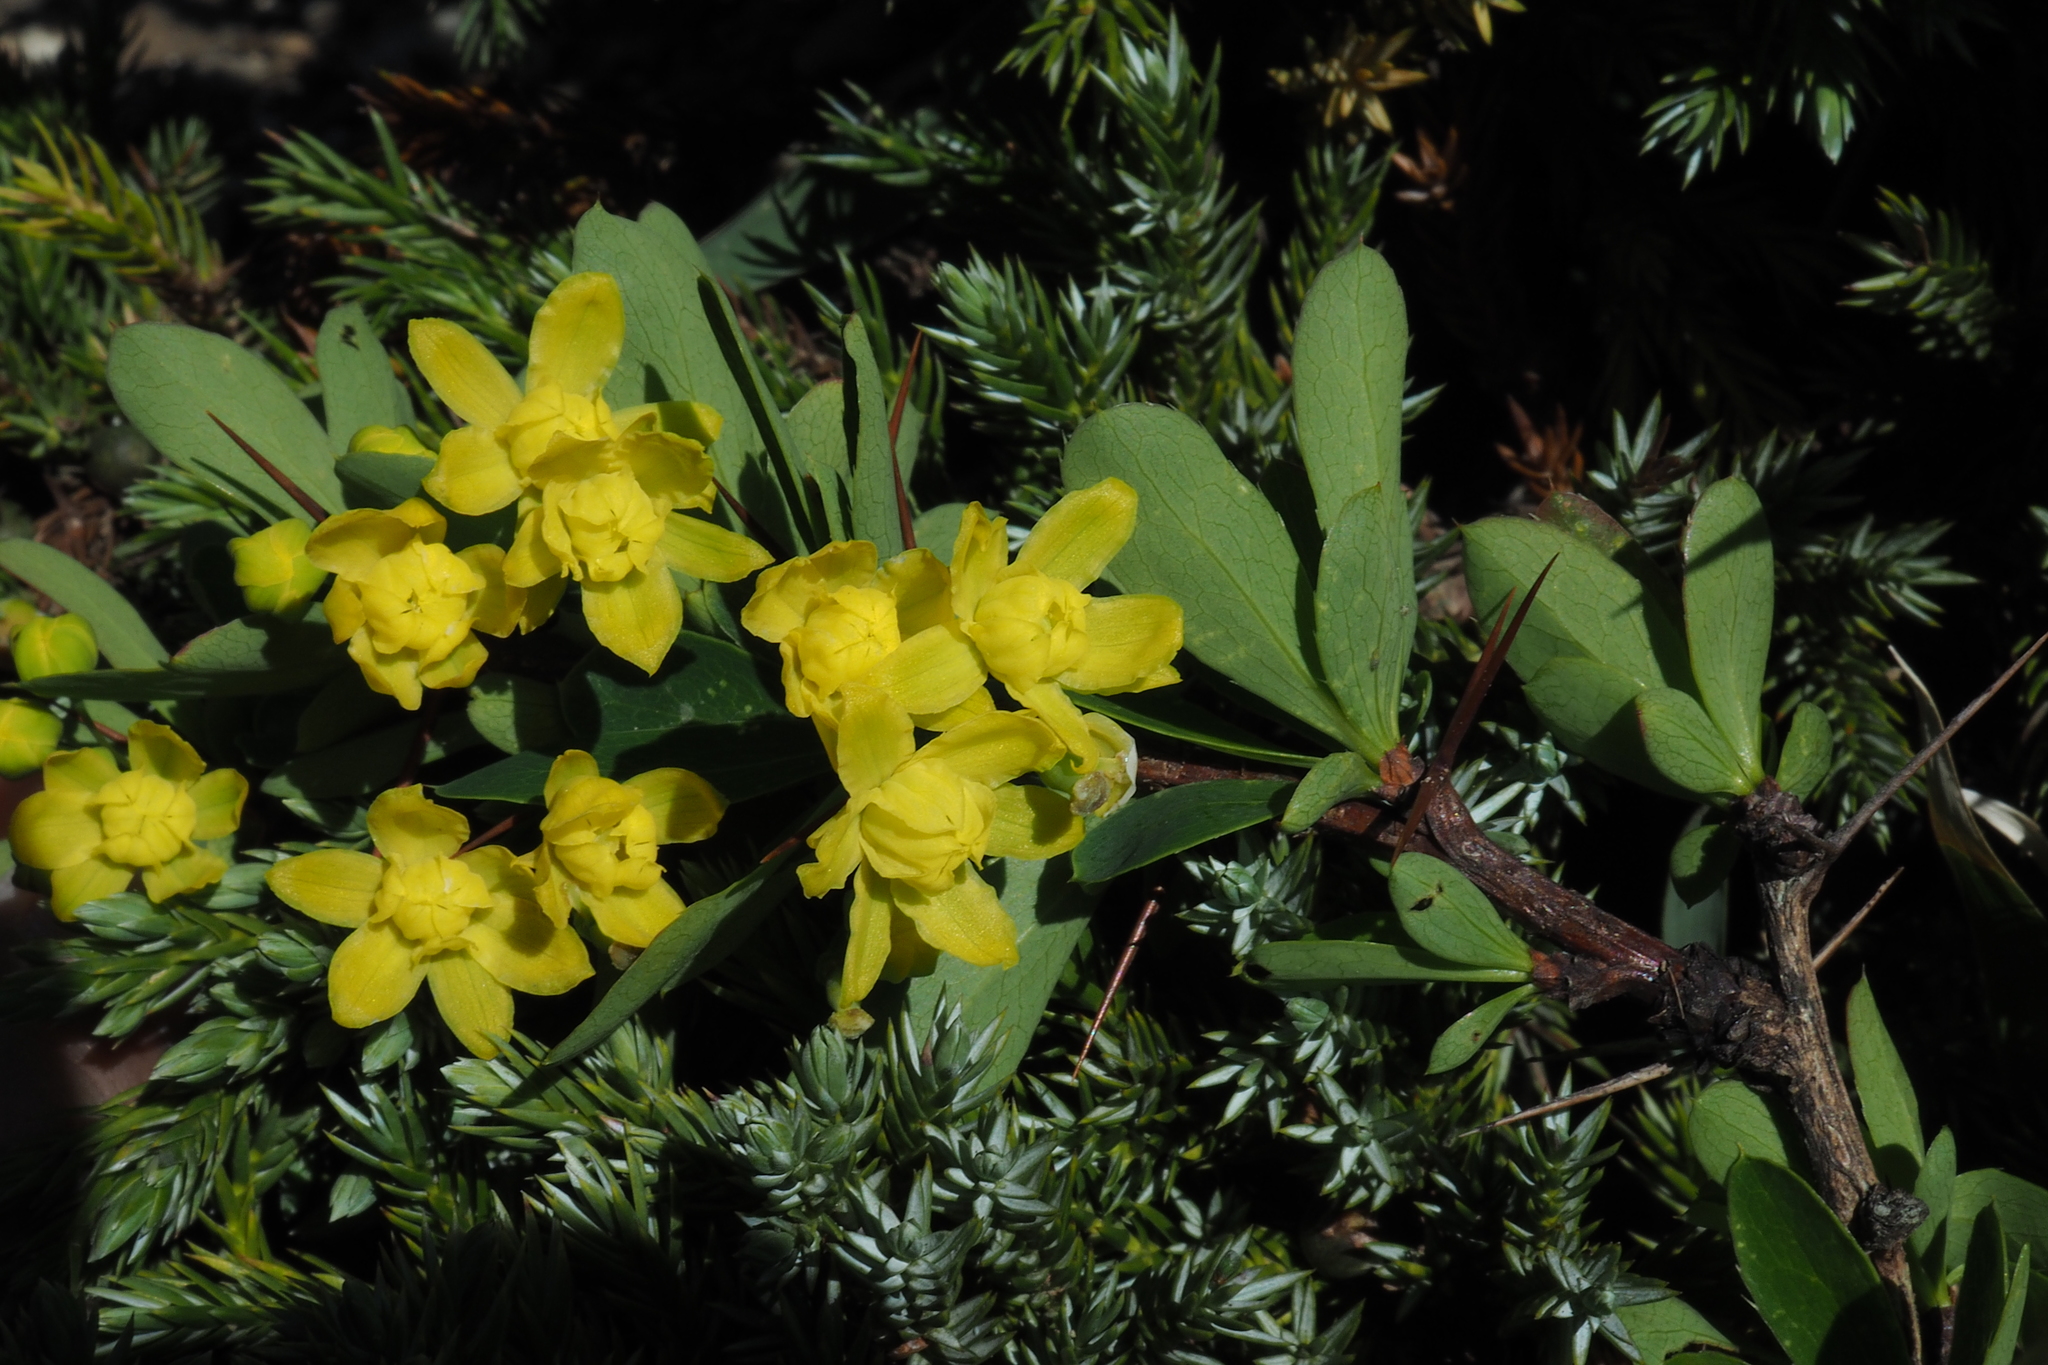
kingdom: Plantae
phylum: Tracheophyta
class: Magnoliopsida
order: Ranunculales
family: Berberidaceae
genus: Berberis
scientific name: Berberis morrisonensis
